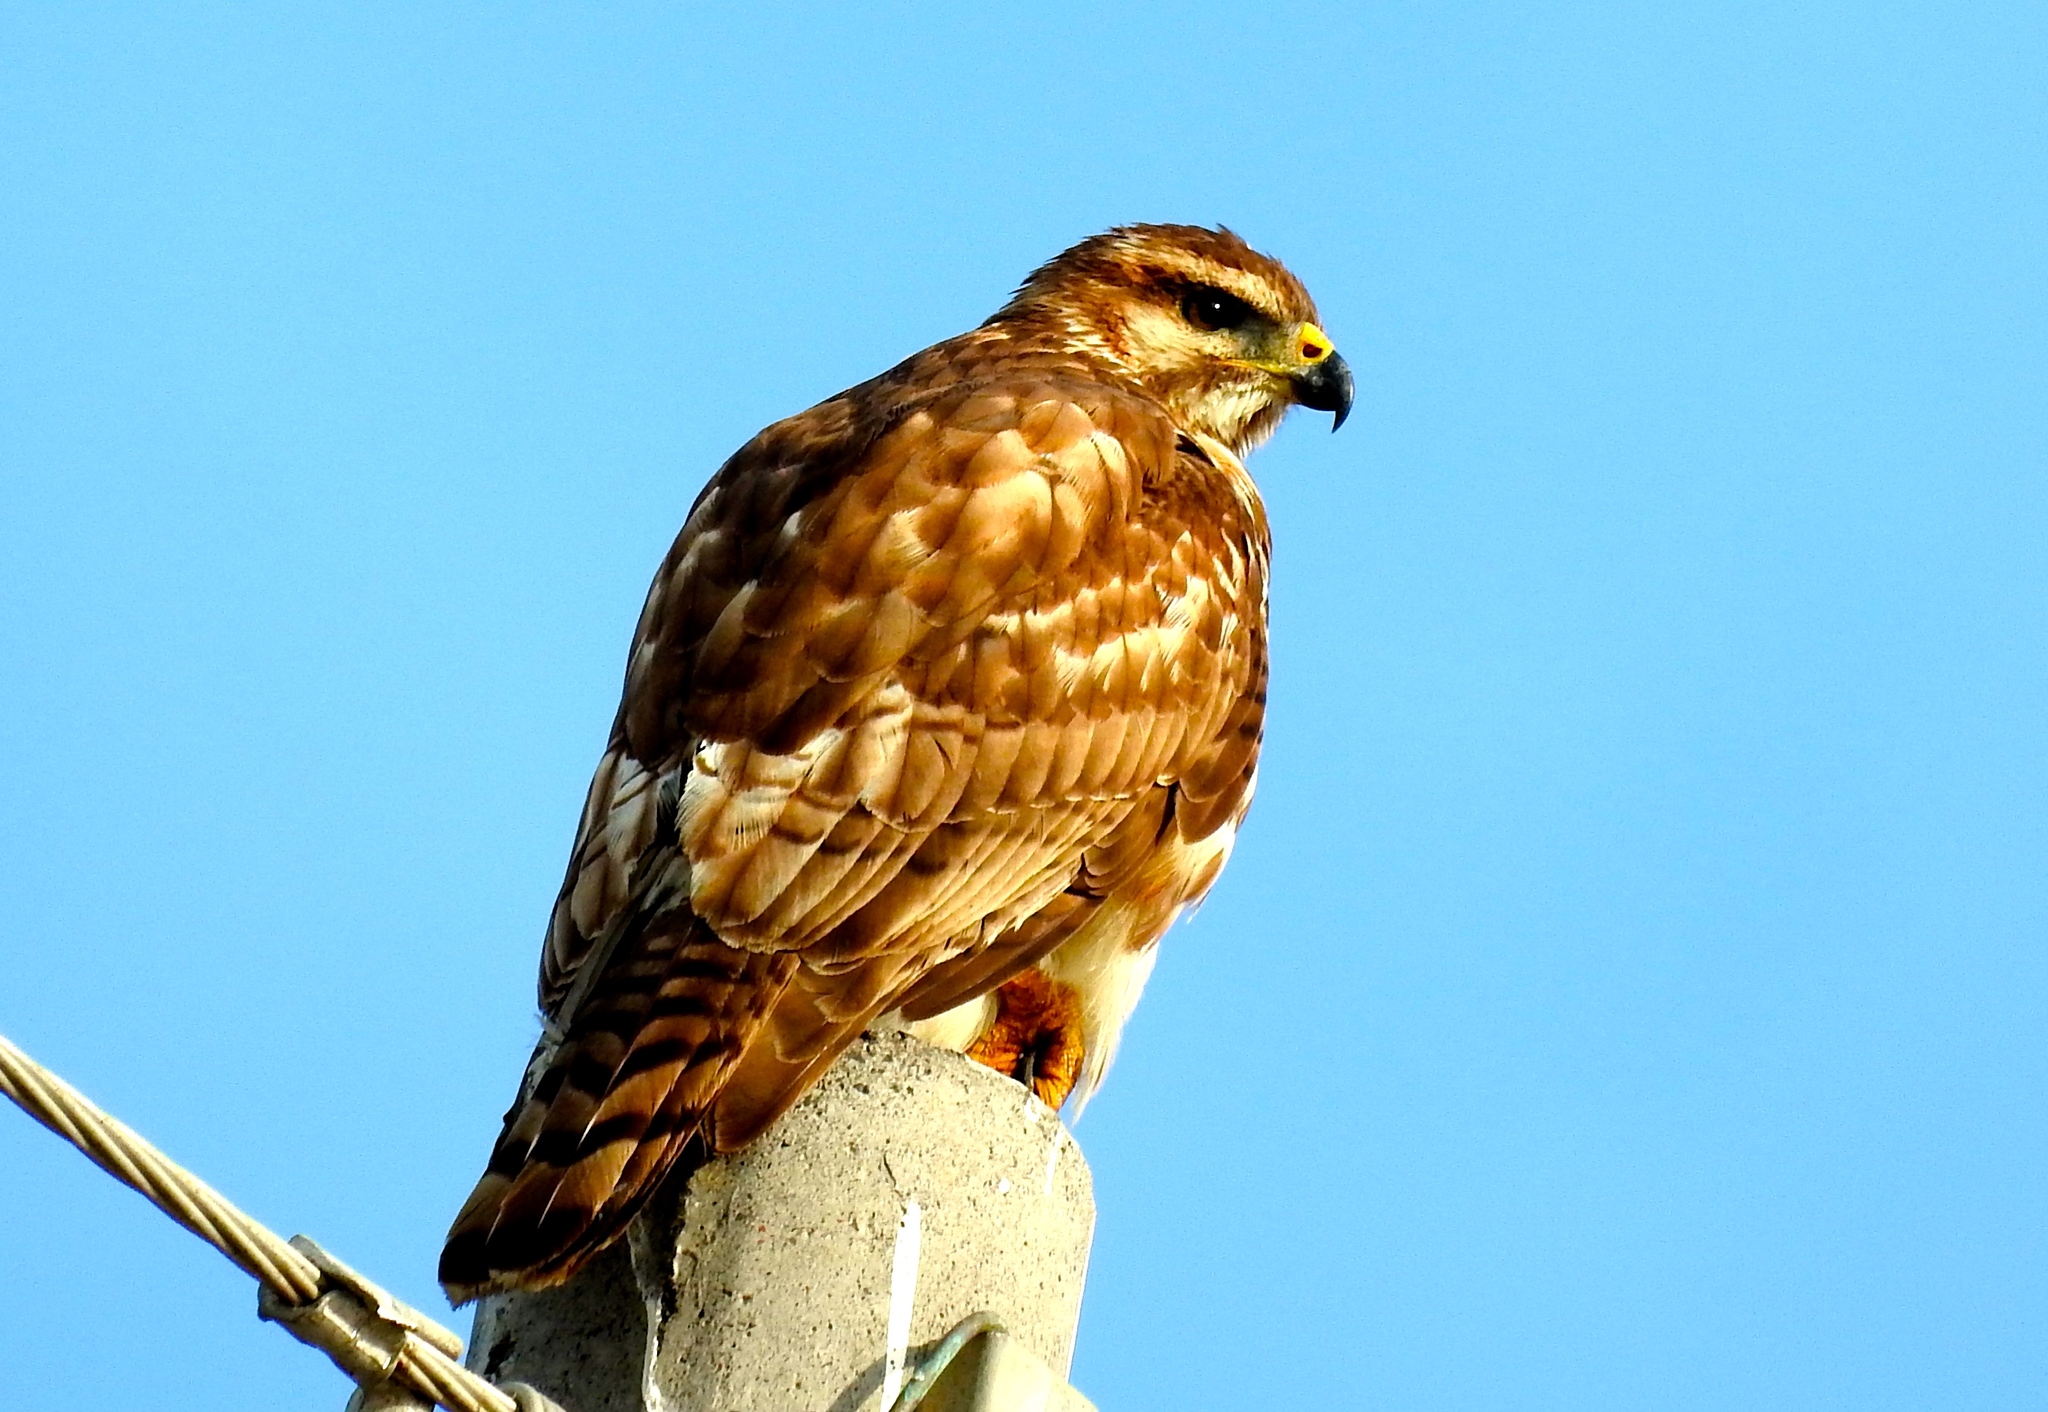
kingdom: Animalia
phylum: Chordata
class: Aves
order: Accipitriformes
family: Accipitridae
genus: Buteo
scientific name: Buteo nitidus
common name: Grey-lined hawk
